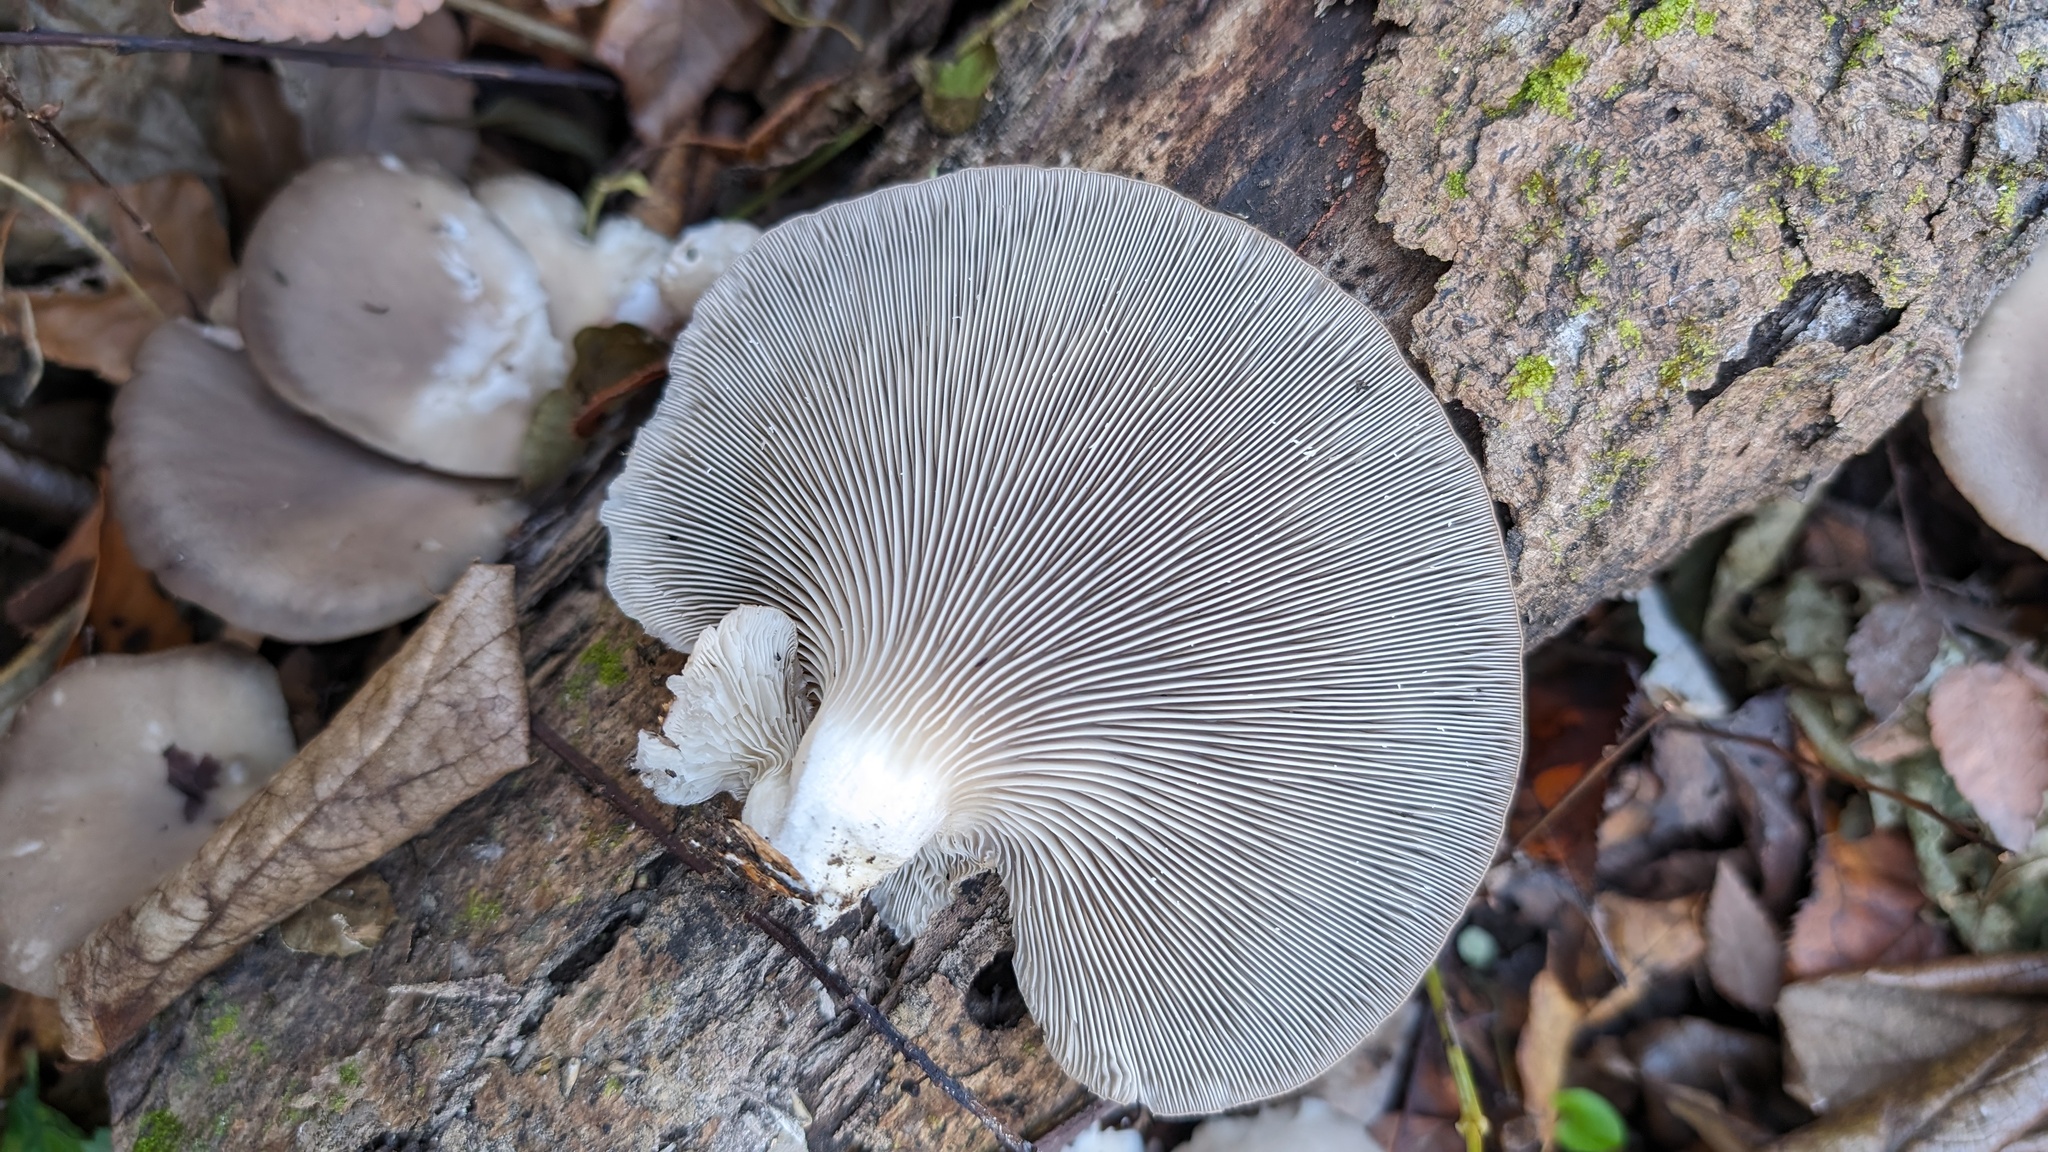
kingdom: Fungi
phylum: Basidiomycota
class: Agaricomycetes
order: Agaricales
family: Pleurotaceae
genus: Pleurotus
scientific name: Pleurotus ostreatus
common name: Oyster mushroom
